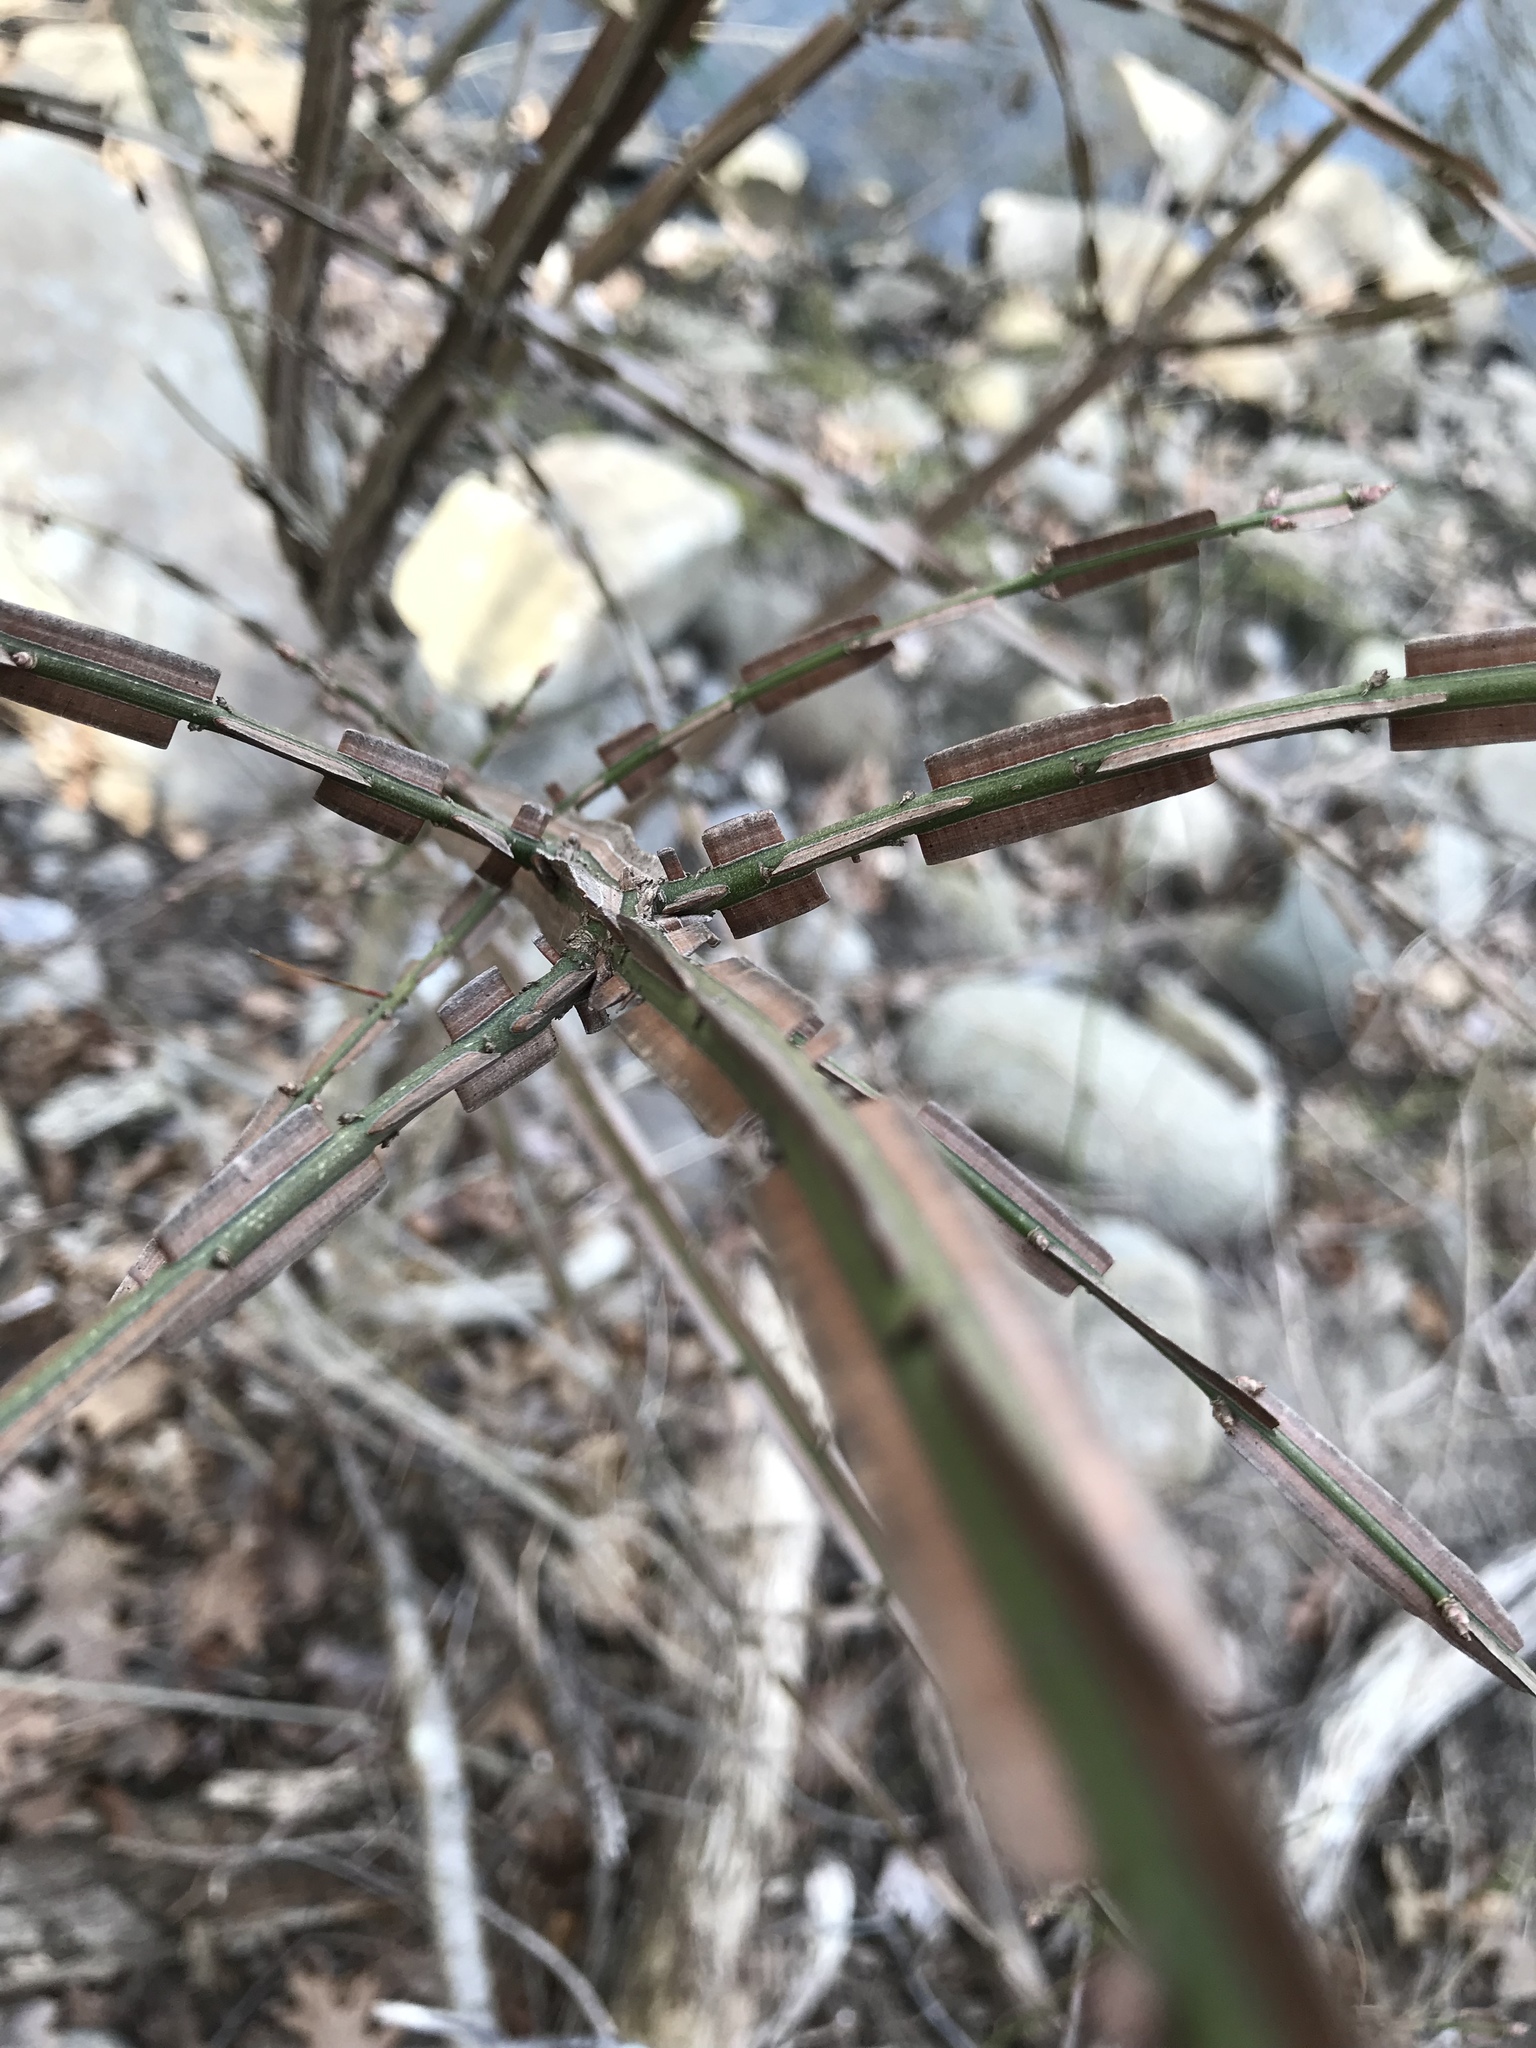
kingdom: Plantae
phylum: Tracheophyta
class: Magnoliopsida
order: Celastrales
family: Celastraceae
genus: Euonymus
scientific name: Euonymus alatus
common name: Winged euonymus
